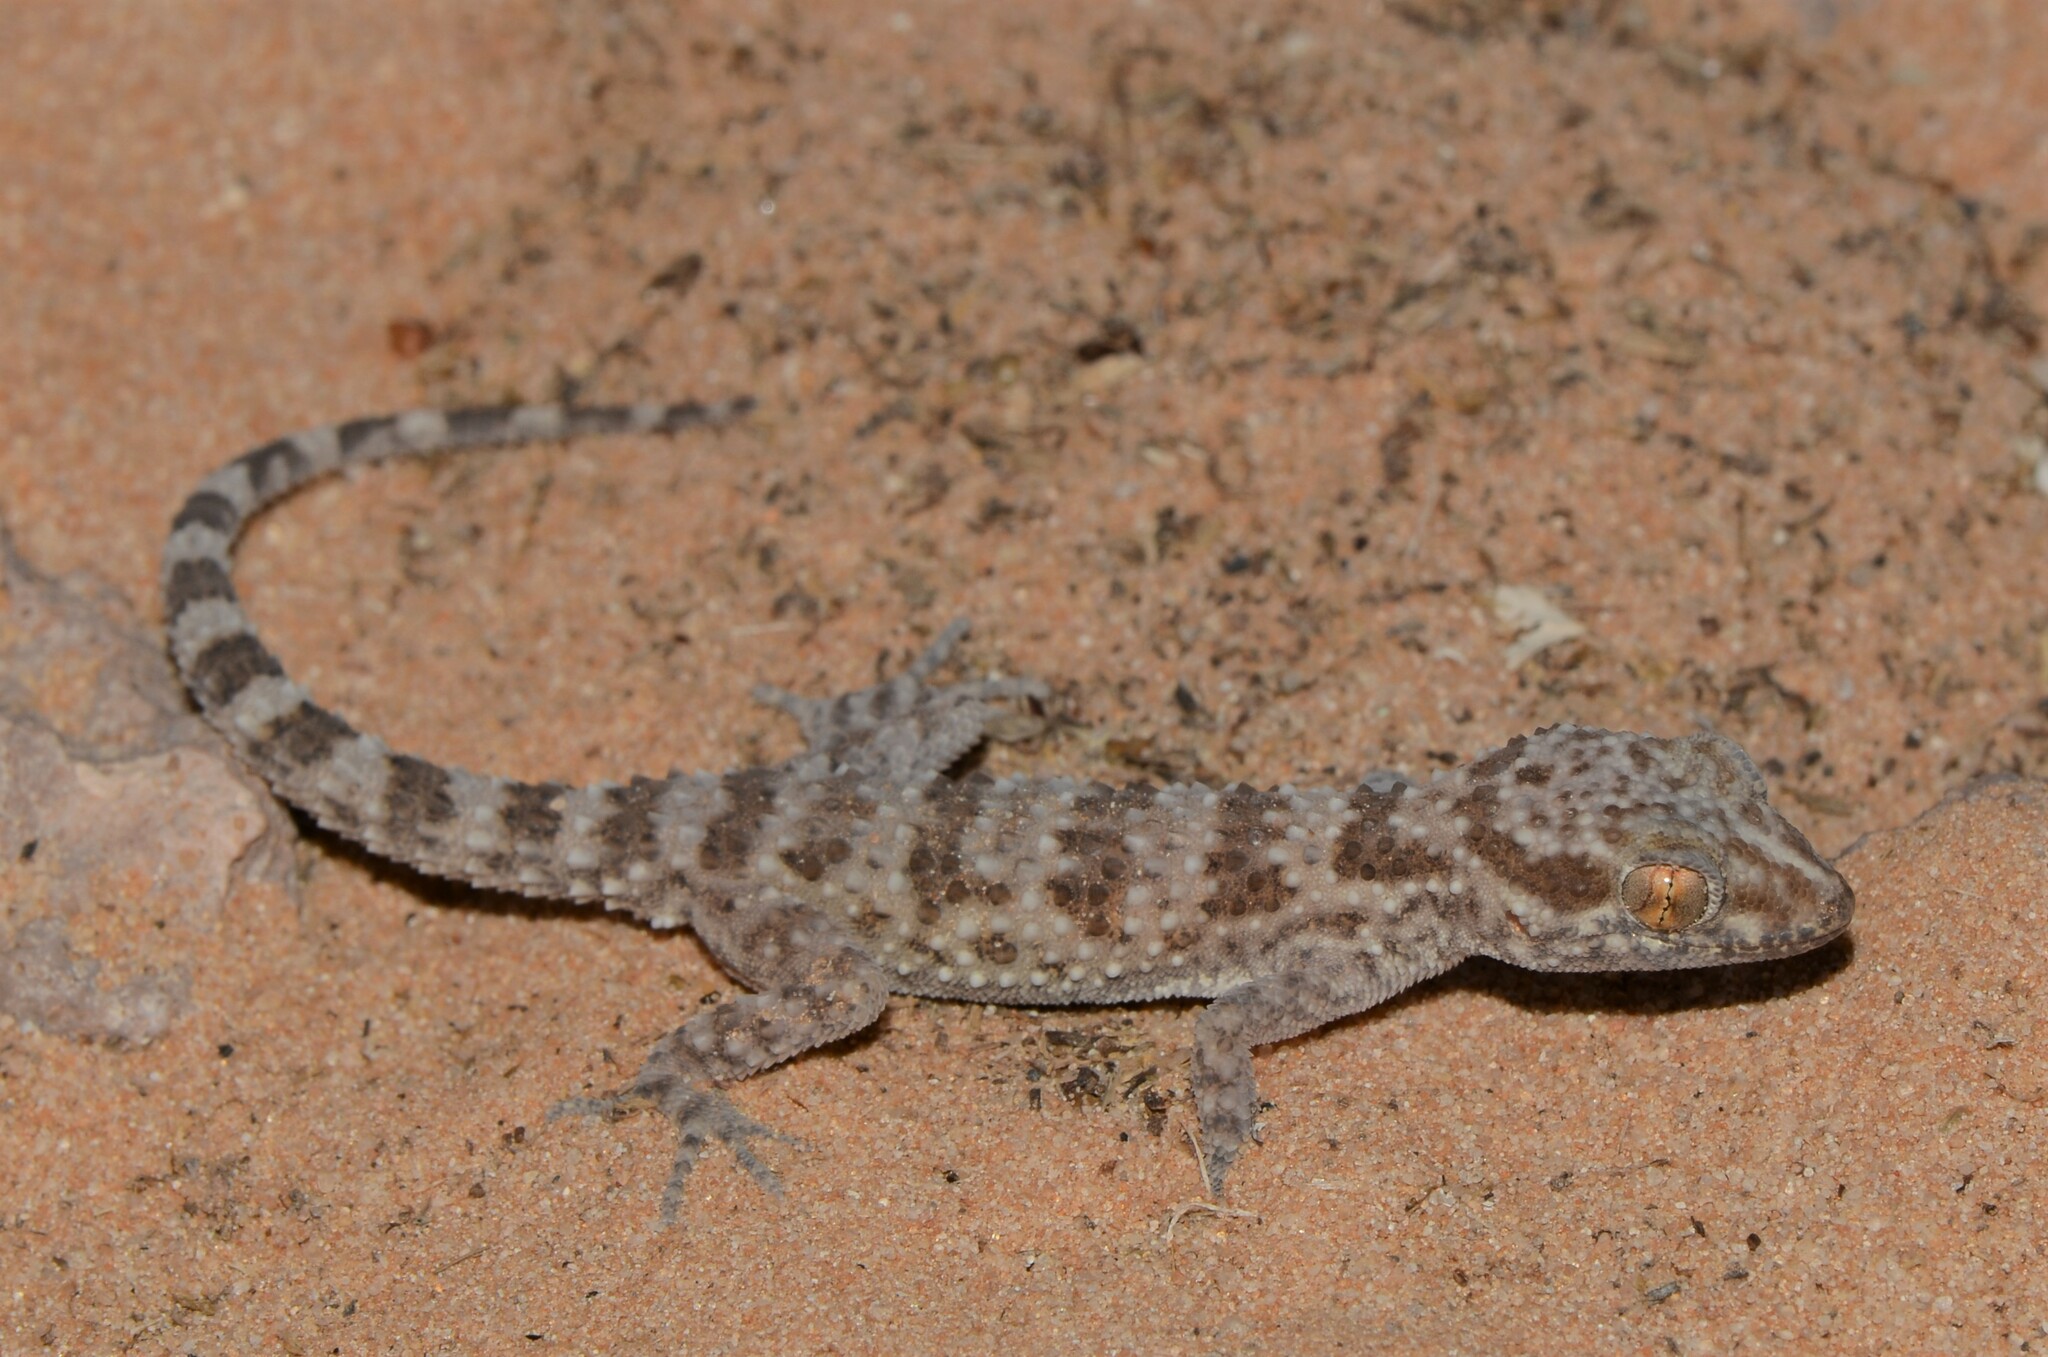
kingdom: Animalia
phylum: Chordata
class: Squamata
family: Gekkonidae
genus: Bunopus
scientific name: Bunopus tuberculatus
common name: Southern tuberculated gecko
